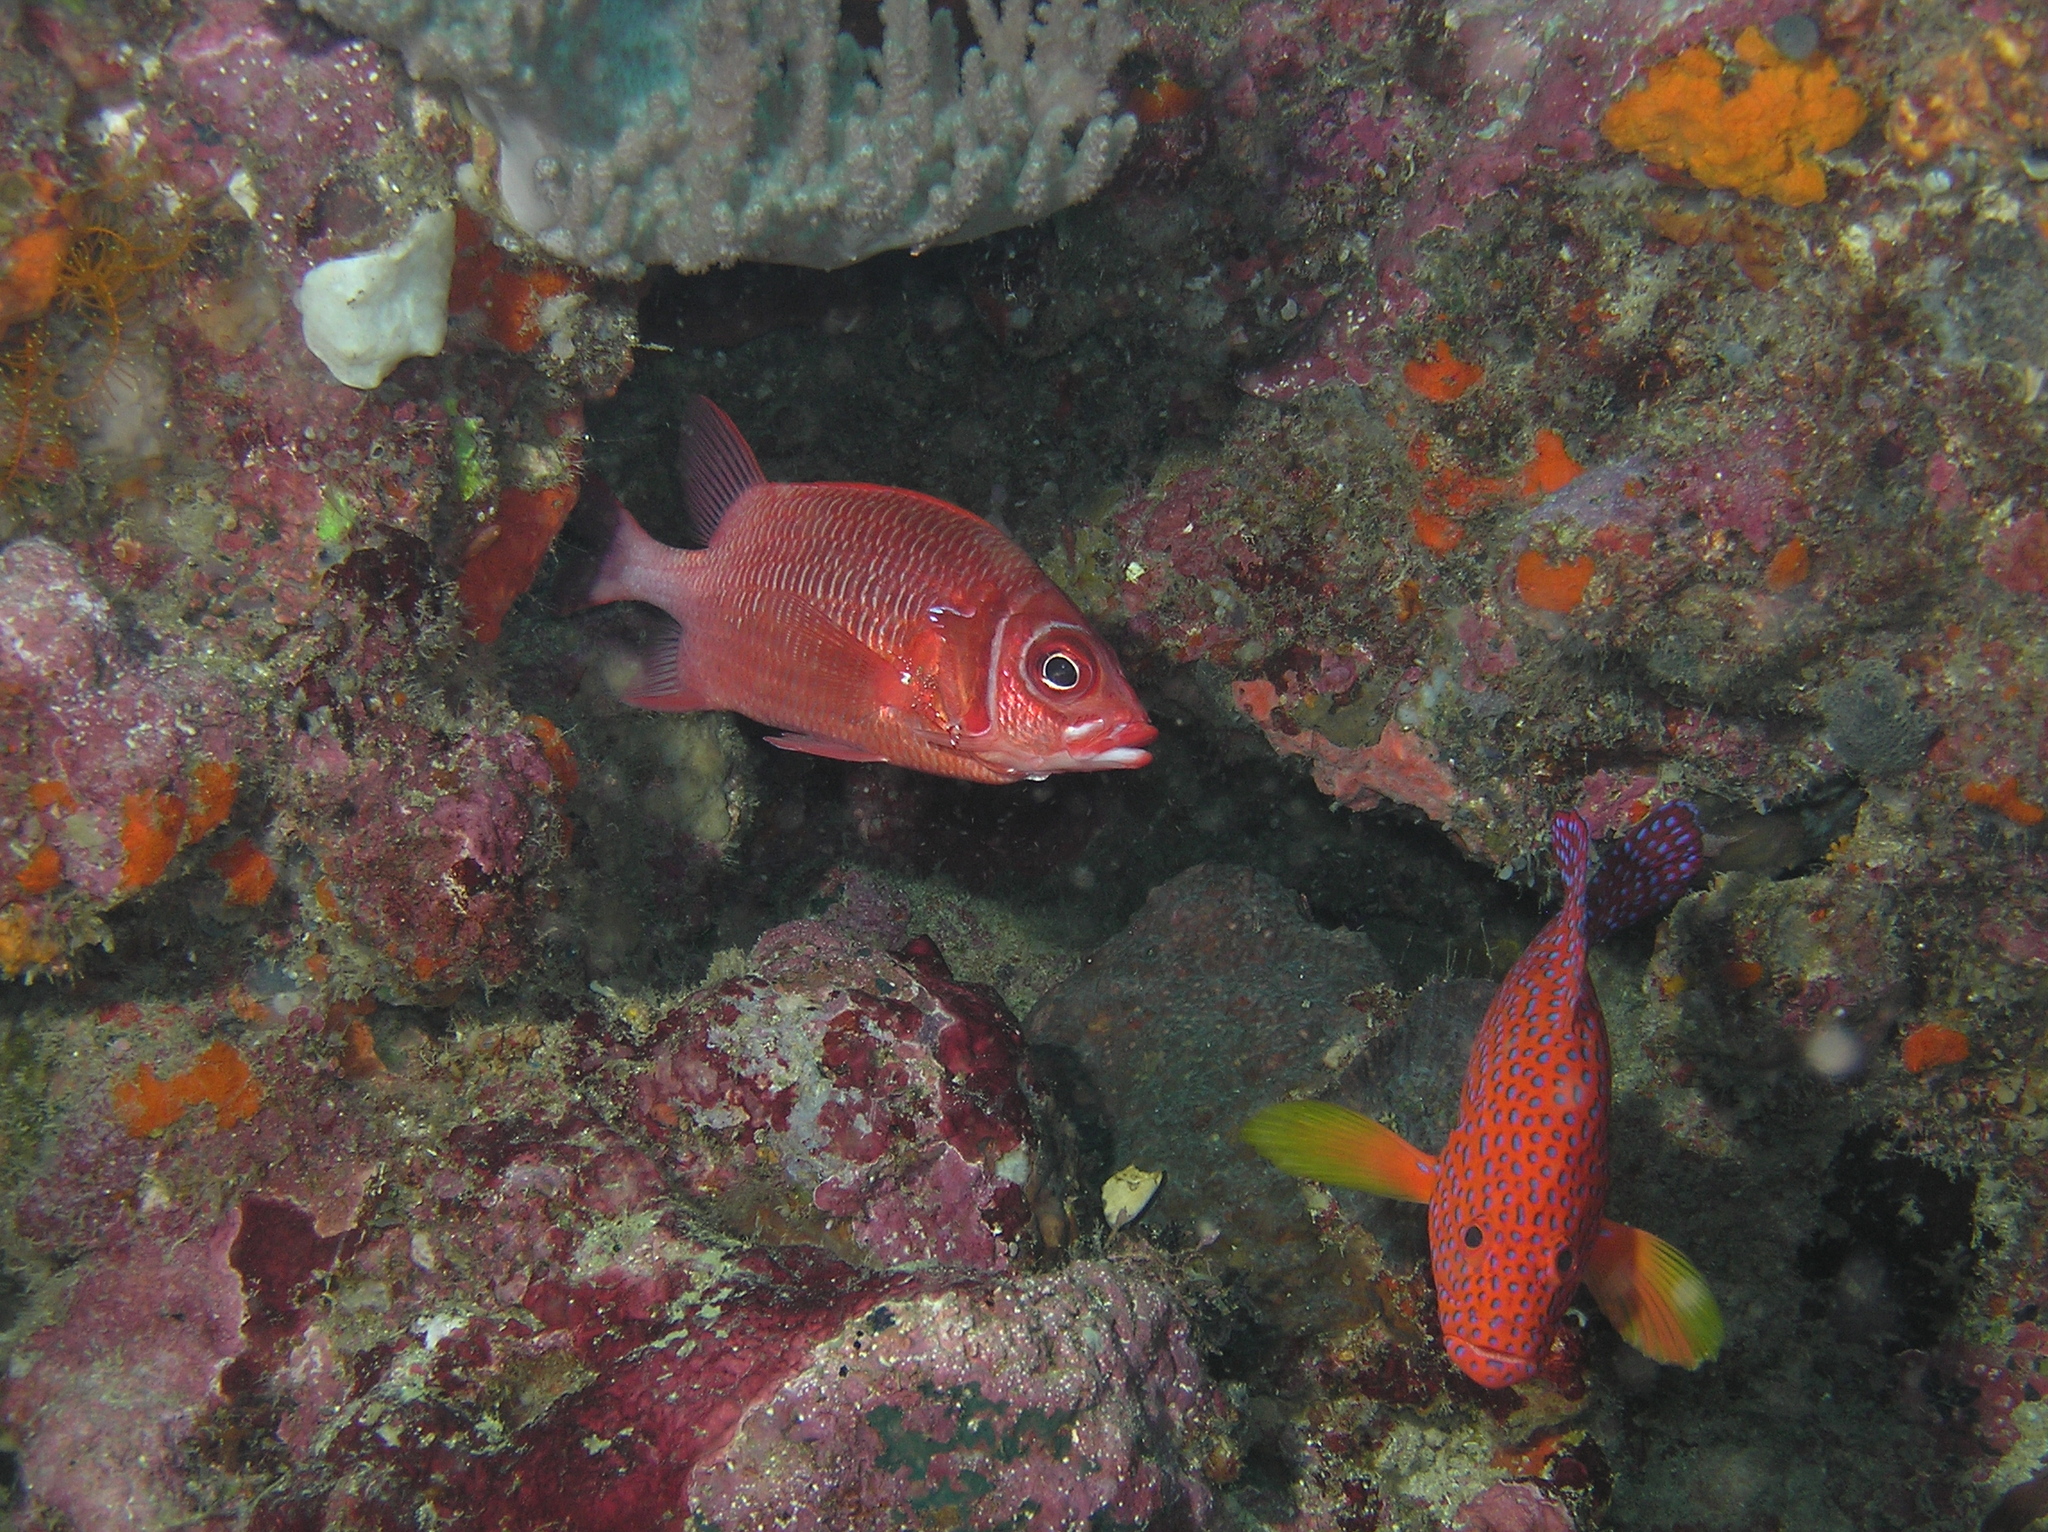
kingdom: Animalia
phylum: Chordata
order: Beryciformes
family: Holocentridae
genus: Sargocentron
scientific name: Sargocentron caudimaculatum
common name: Fanfin soldier
